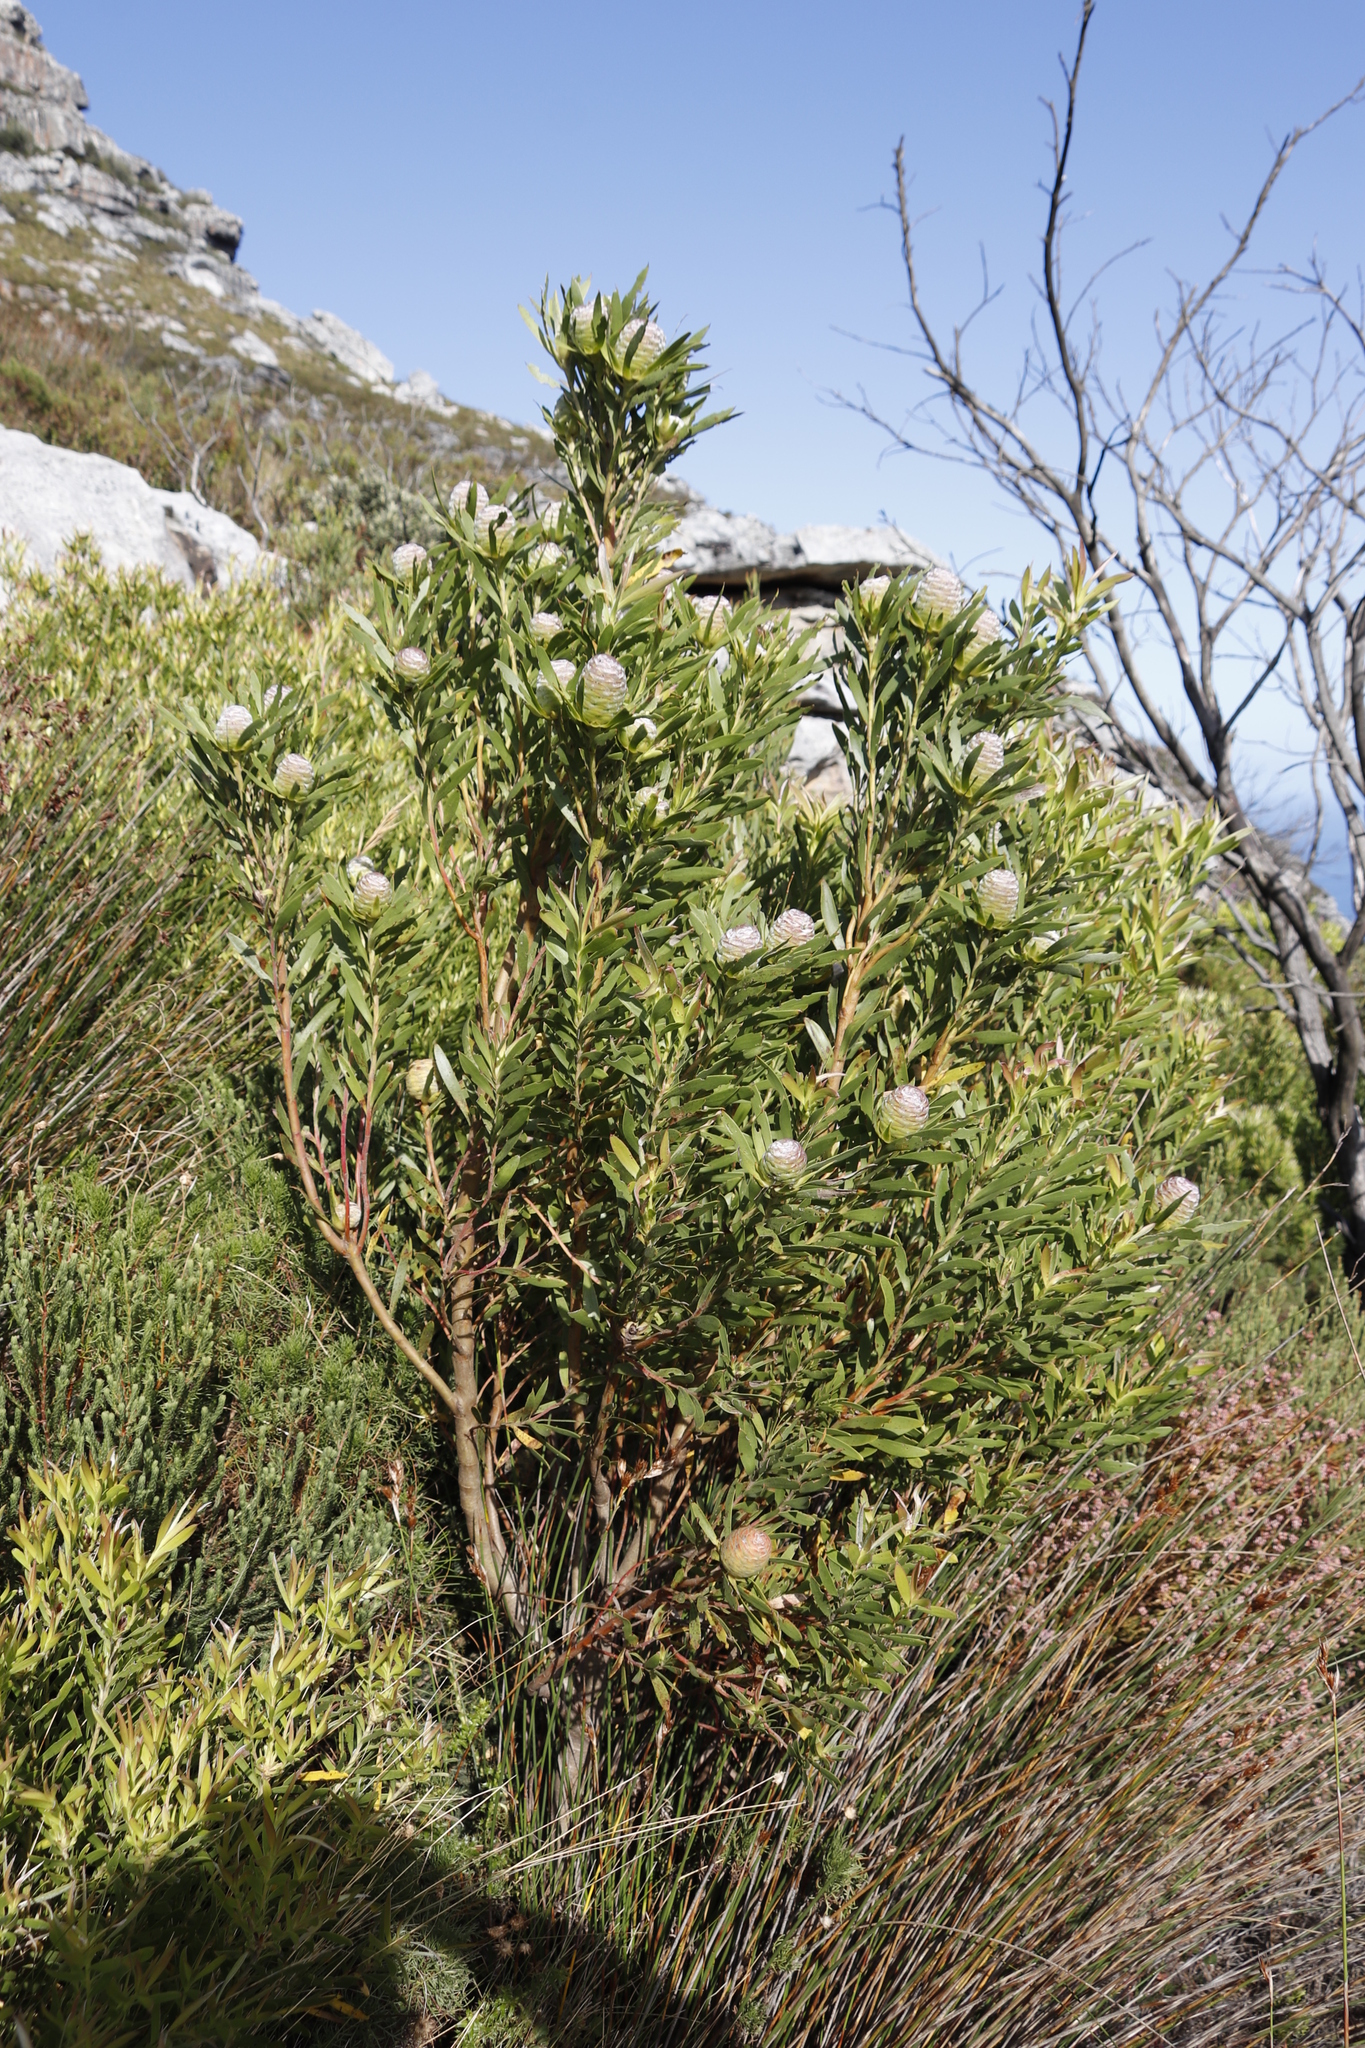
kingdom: Plantae
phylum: Tracheophyta
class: Magnoliopsida
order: Proteales
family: Proteaceae
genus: Leucadendron
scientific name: Leucadendron xanthoconus
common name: Sickle-leaf conebush
